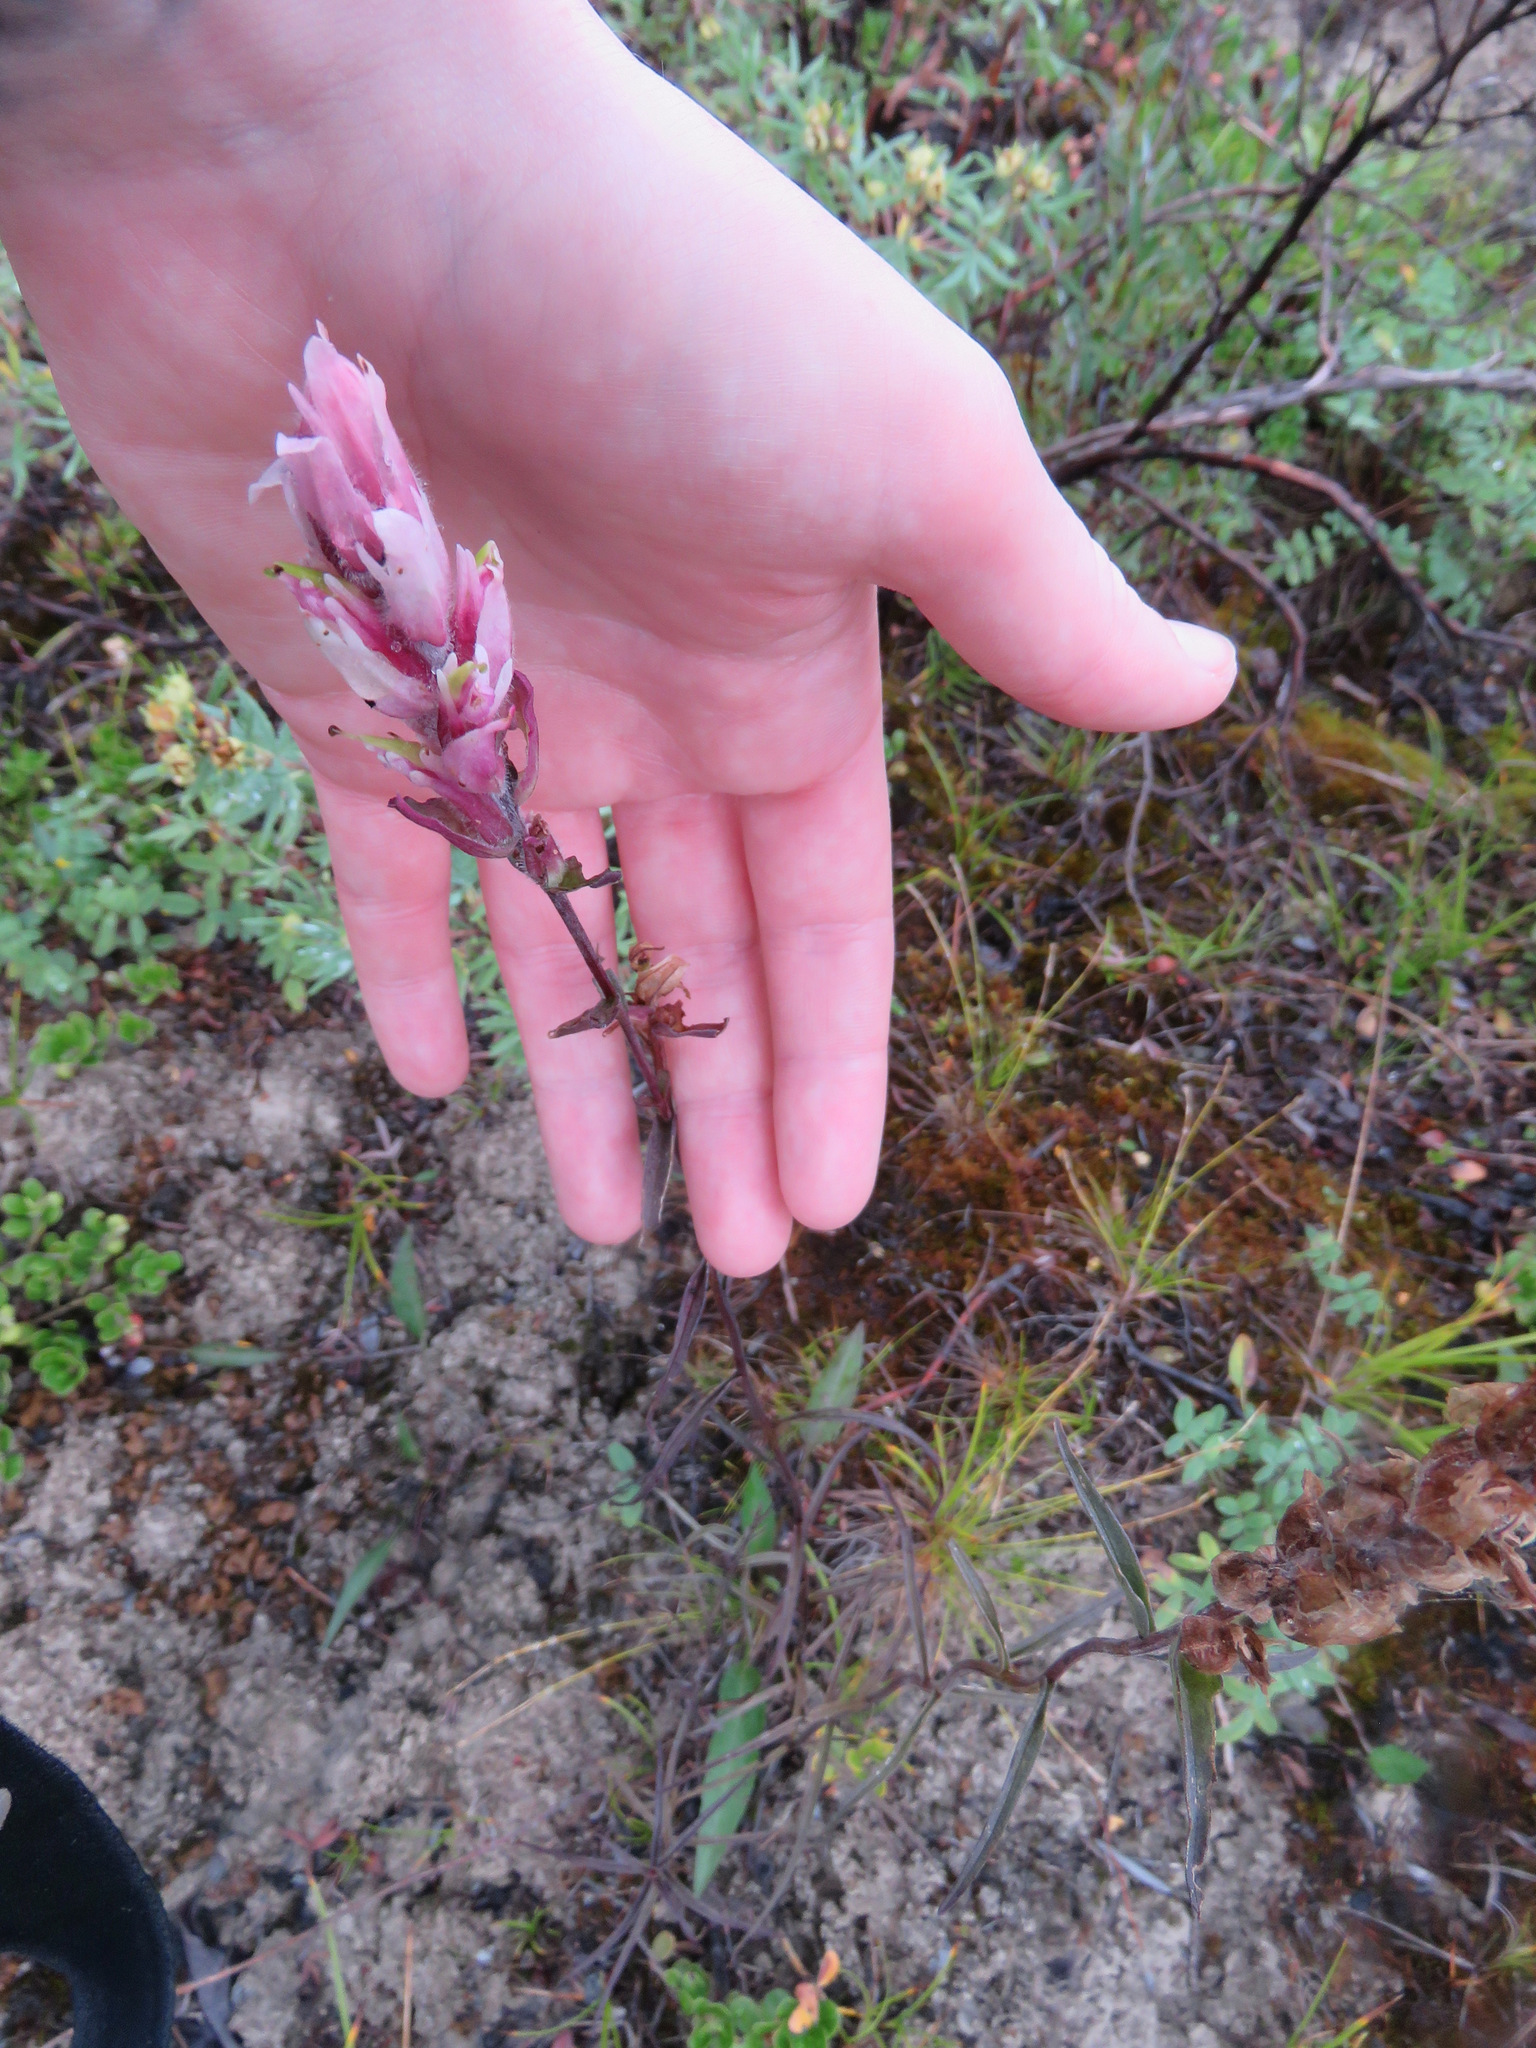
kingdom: Plantae
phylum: Tracheophyta
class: Magnoliopsida
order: Lamiales
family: Orobanchaceae
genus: Castilleja
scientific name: Castilleja raupii
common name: Raup's paintbrush
